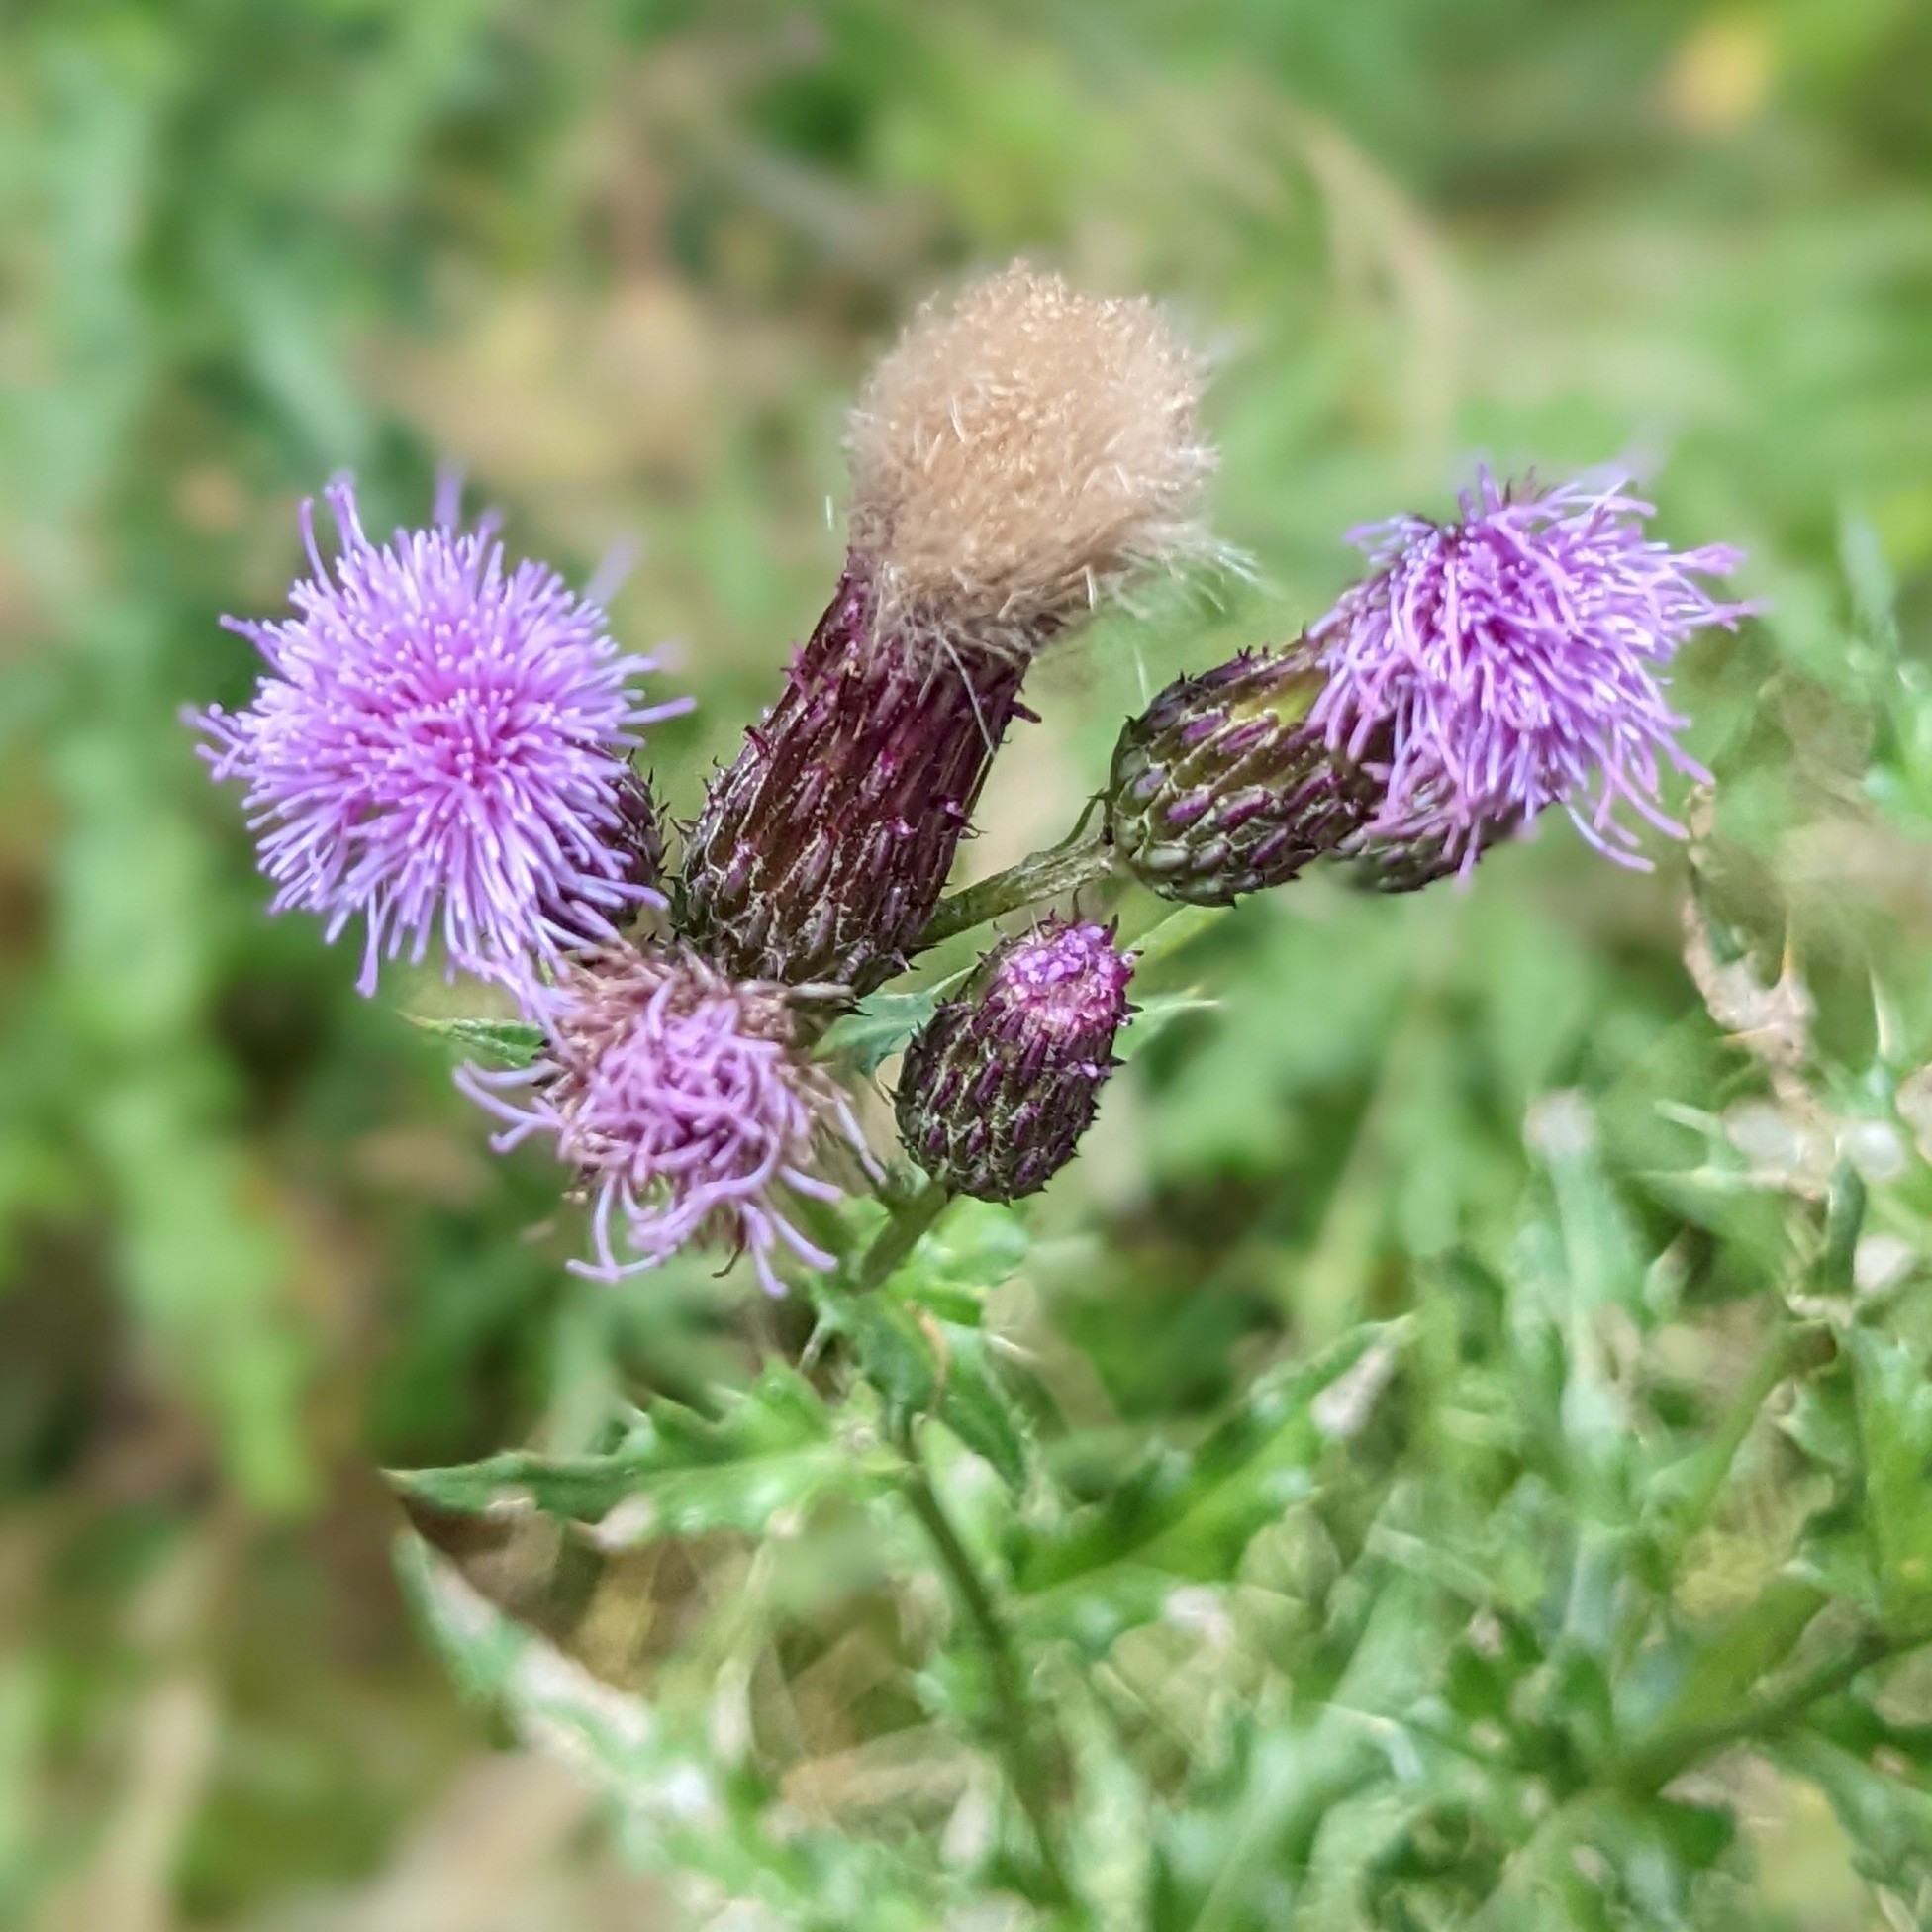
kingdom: Plantae
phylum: Tracheophyta
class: Magnoliopsida
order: Asterales
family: Asteraceae
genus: Cirsium
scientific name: Cirsium arvense
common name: Creeping thistle
